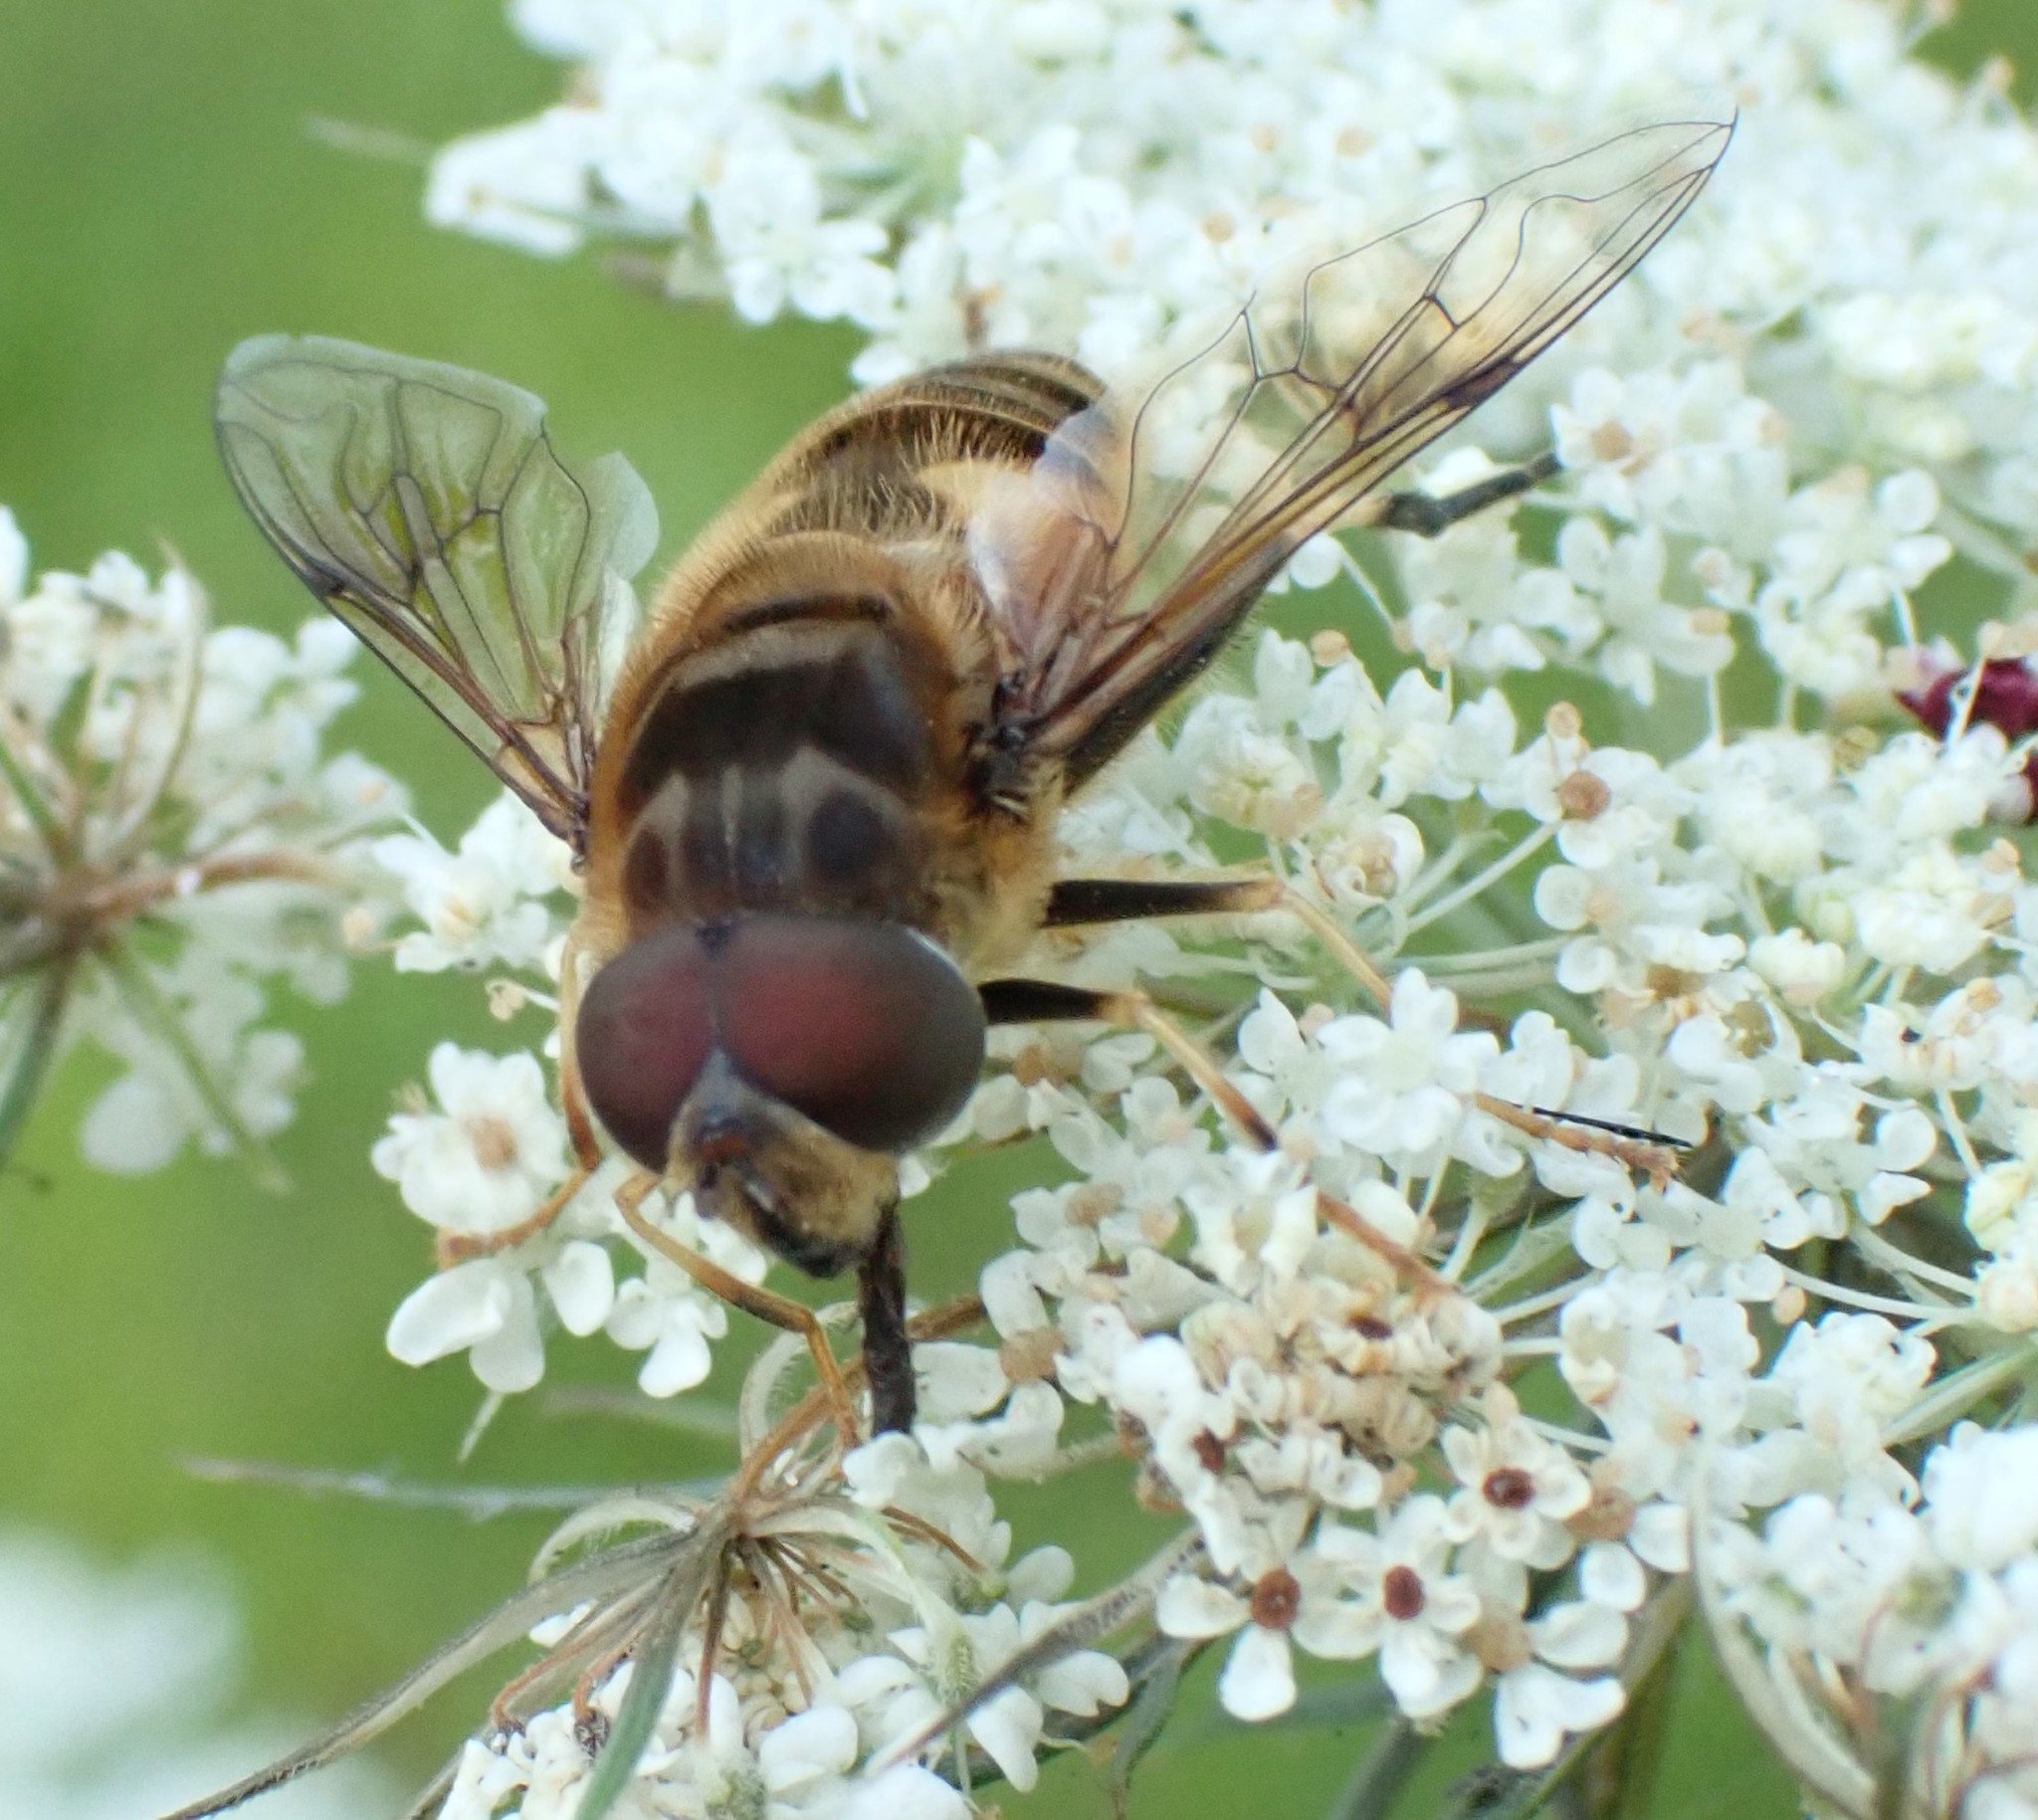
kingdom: Animalia
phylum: Arthropoda
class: Insecta
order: Diptera
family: Syrphidae
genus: Eristalis
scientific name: Eristalis pertinax
